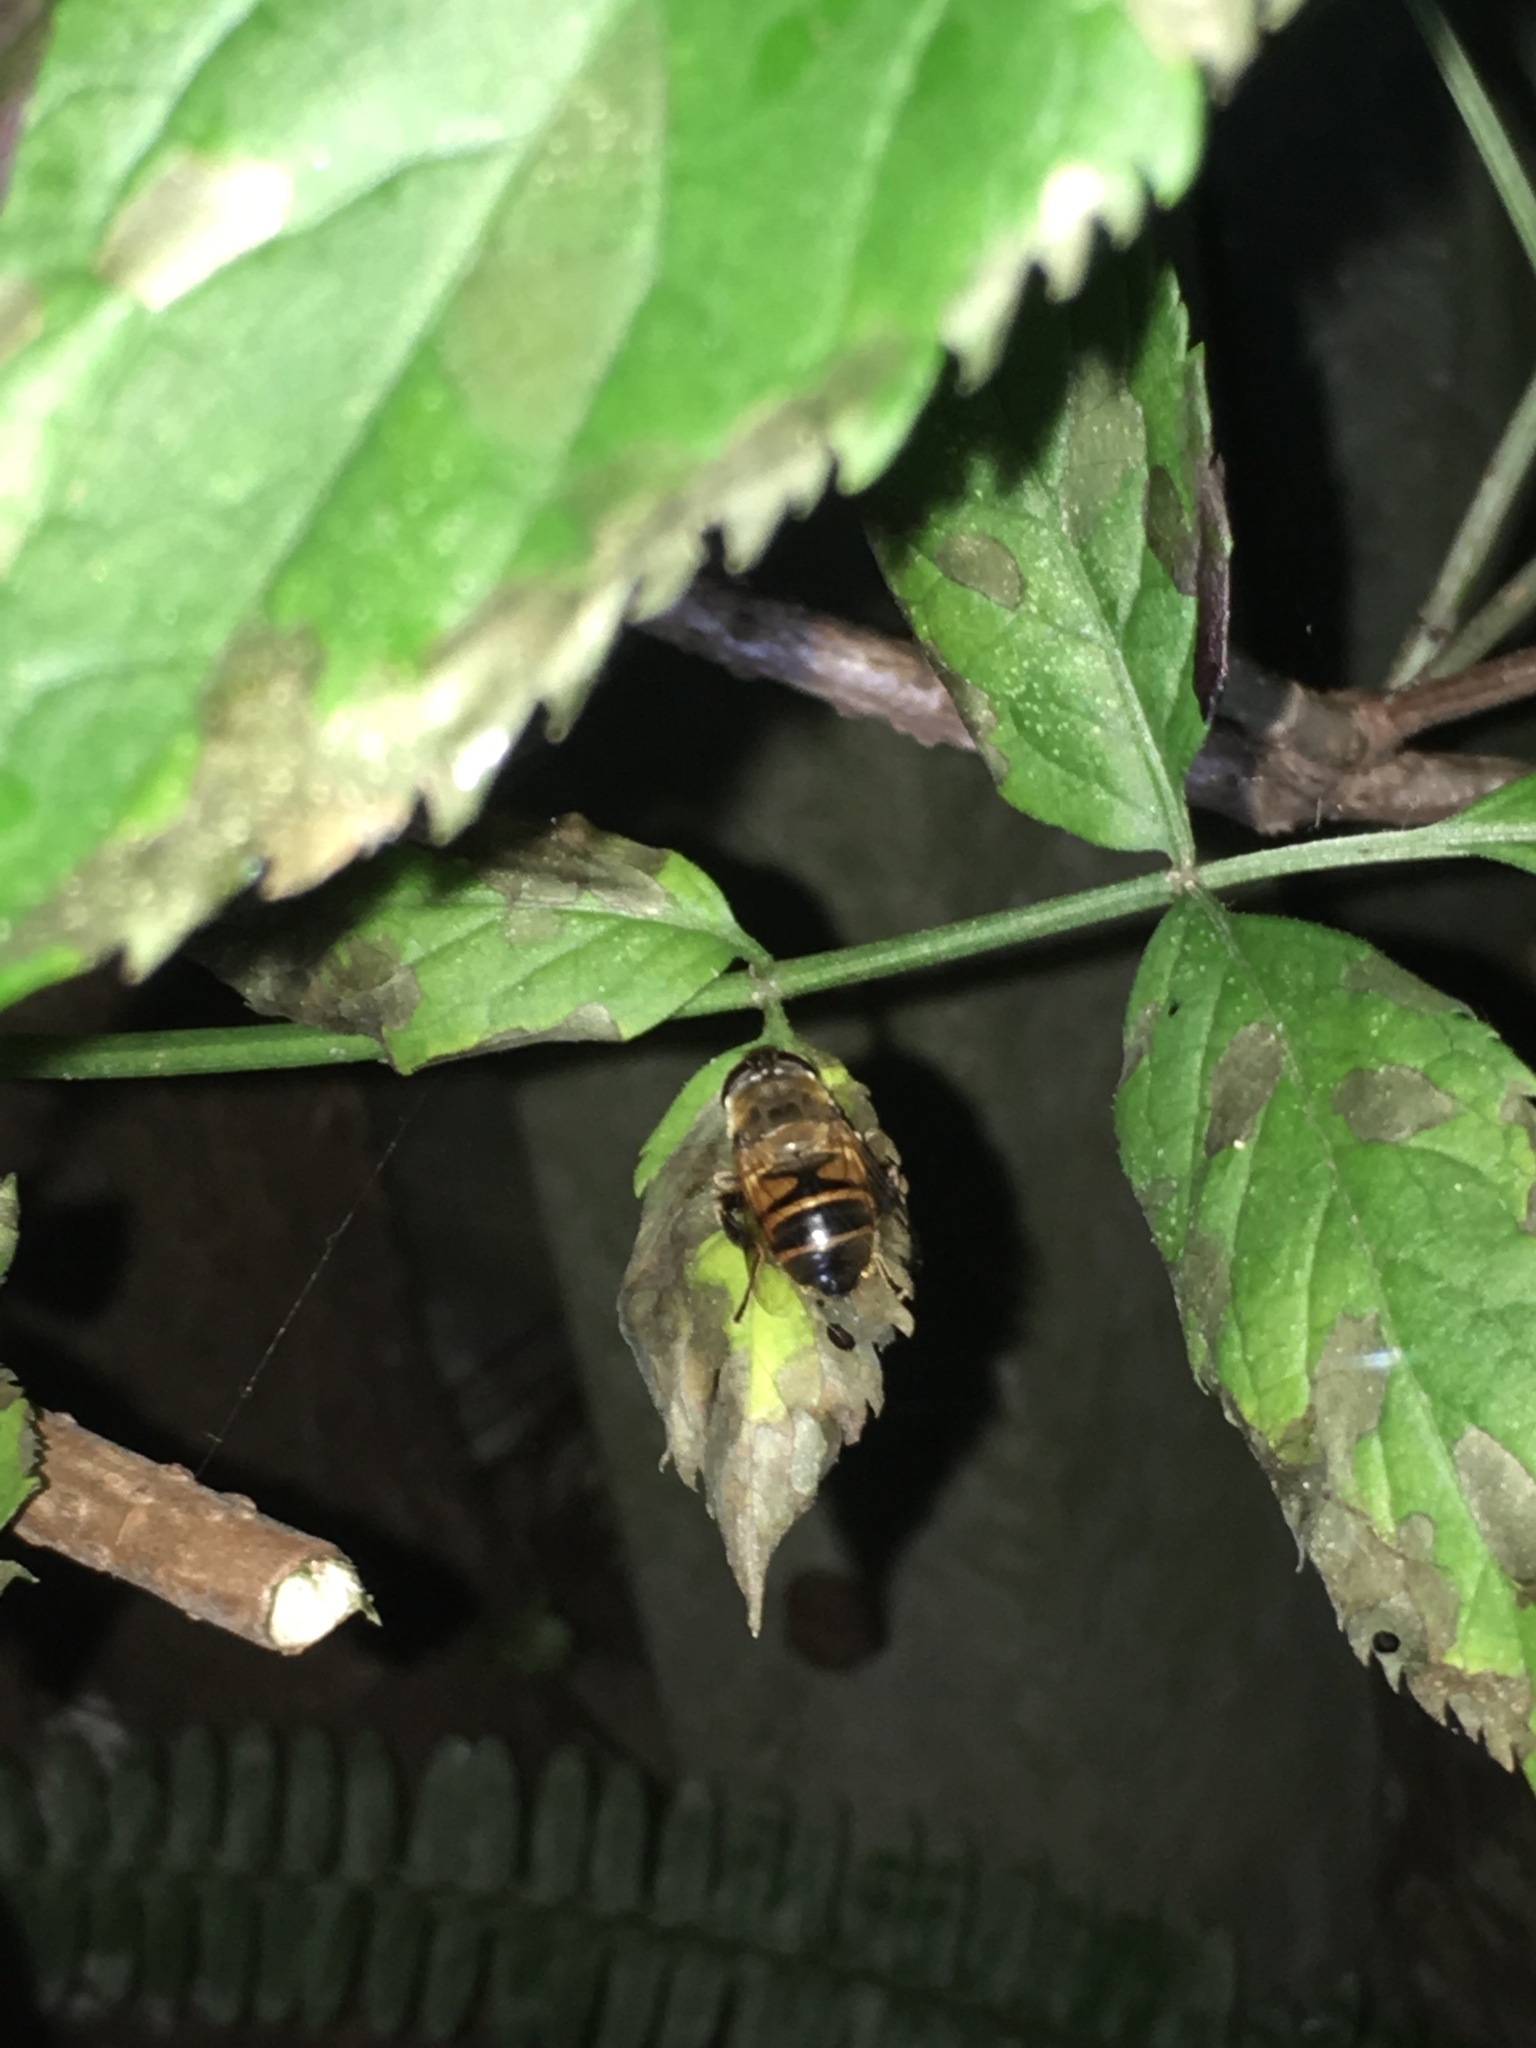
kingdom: Animalia
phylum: Arthropoda
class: Insecta
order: Diptera
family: Syrphidae
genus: Eristalis
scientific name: Eristalis tenax
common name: Drone fly
